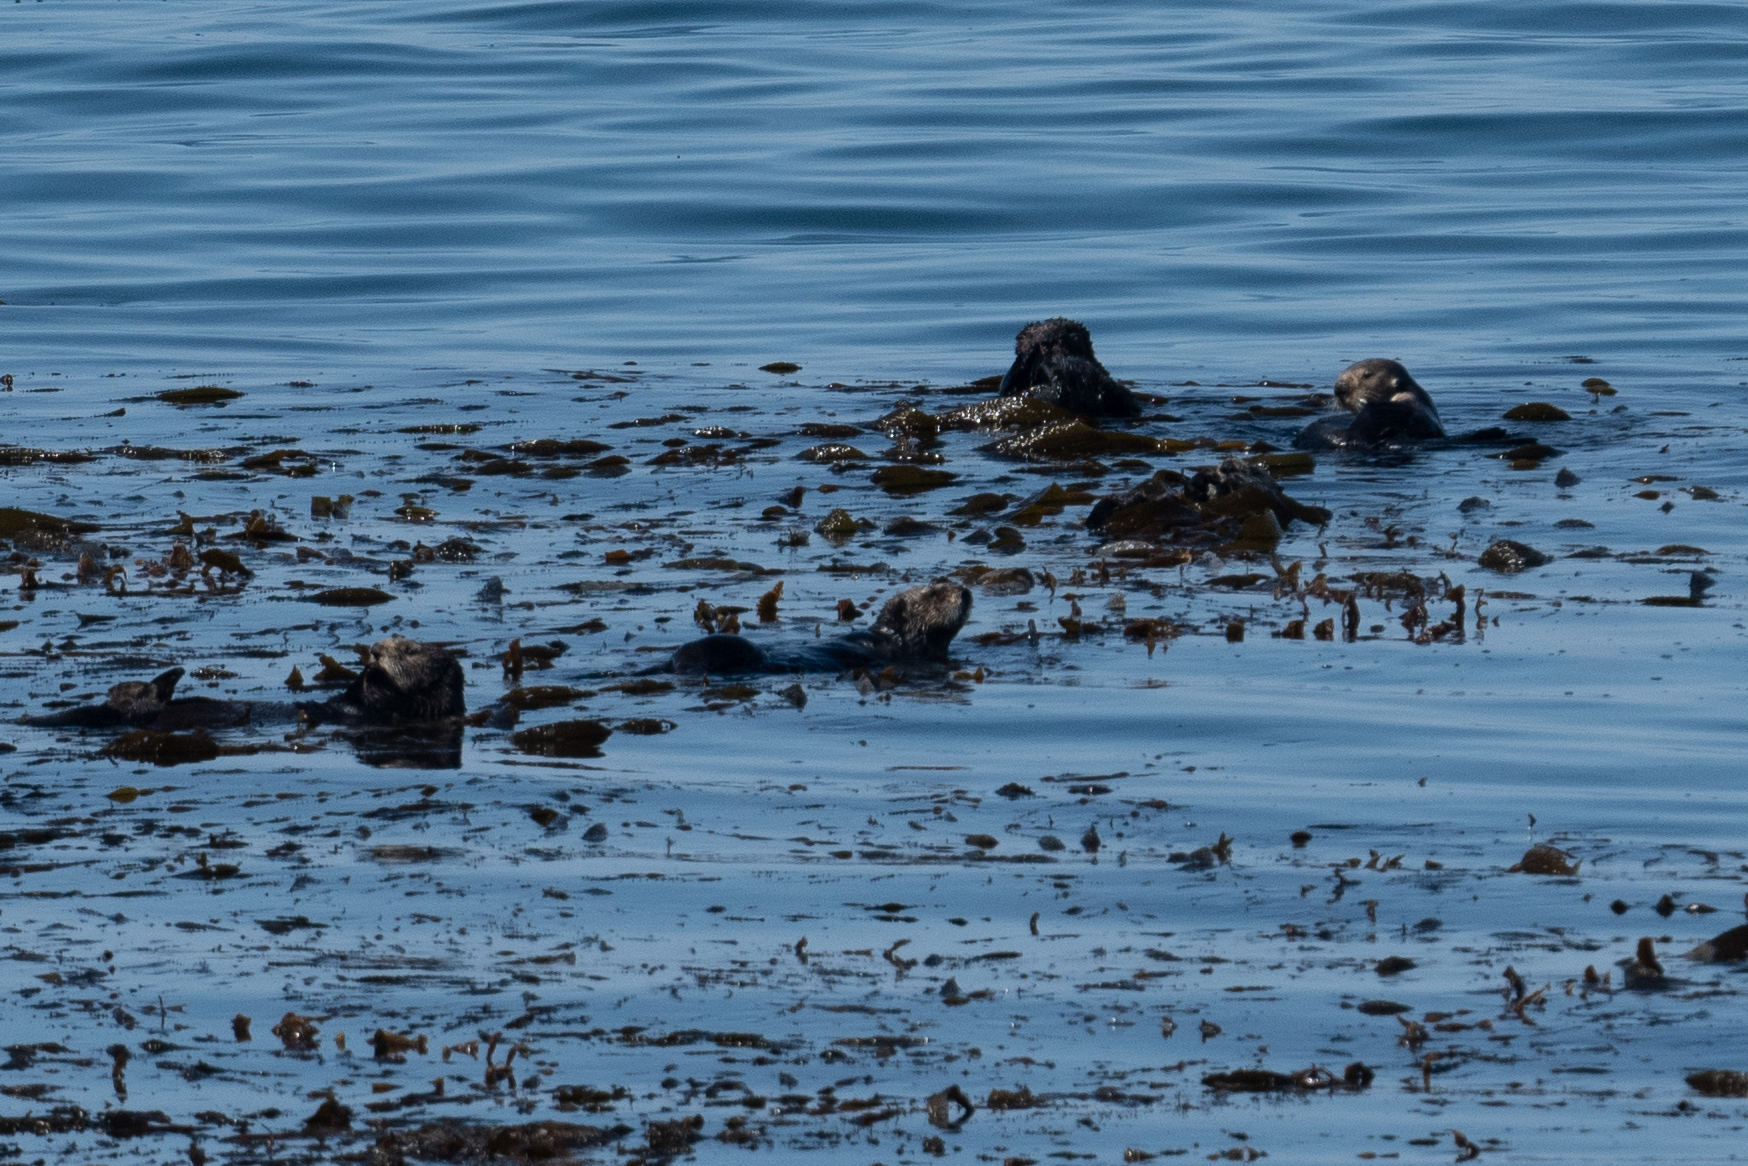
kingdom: Animalia
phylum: Chordata
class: Mammalia
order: Carnivora
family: Mustelidae
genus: Enhydra
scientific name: Enhydra lutris
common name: Sea otter
